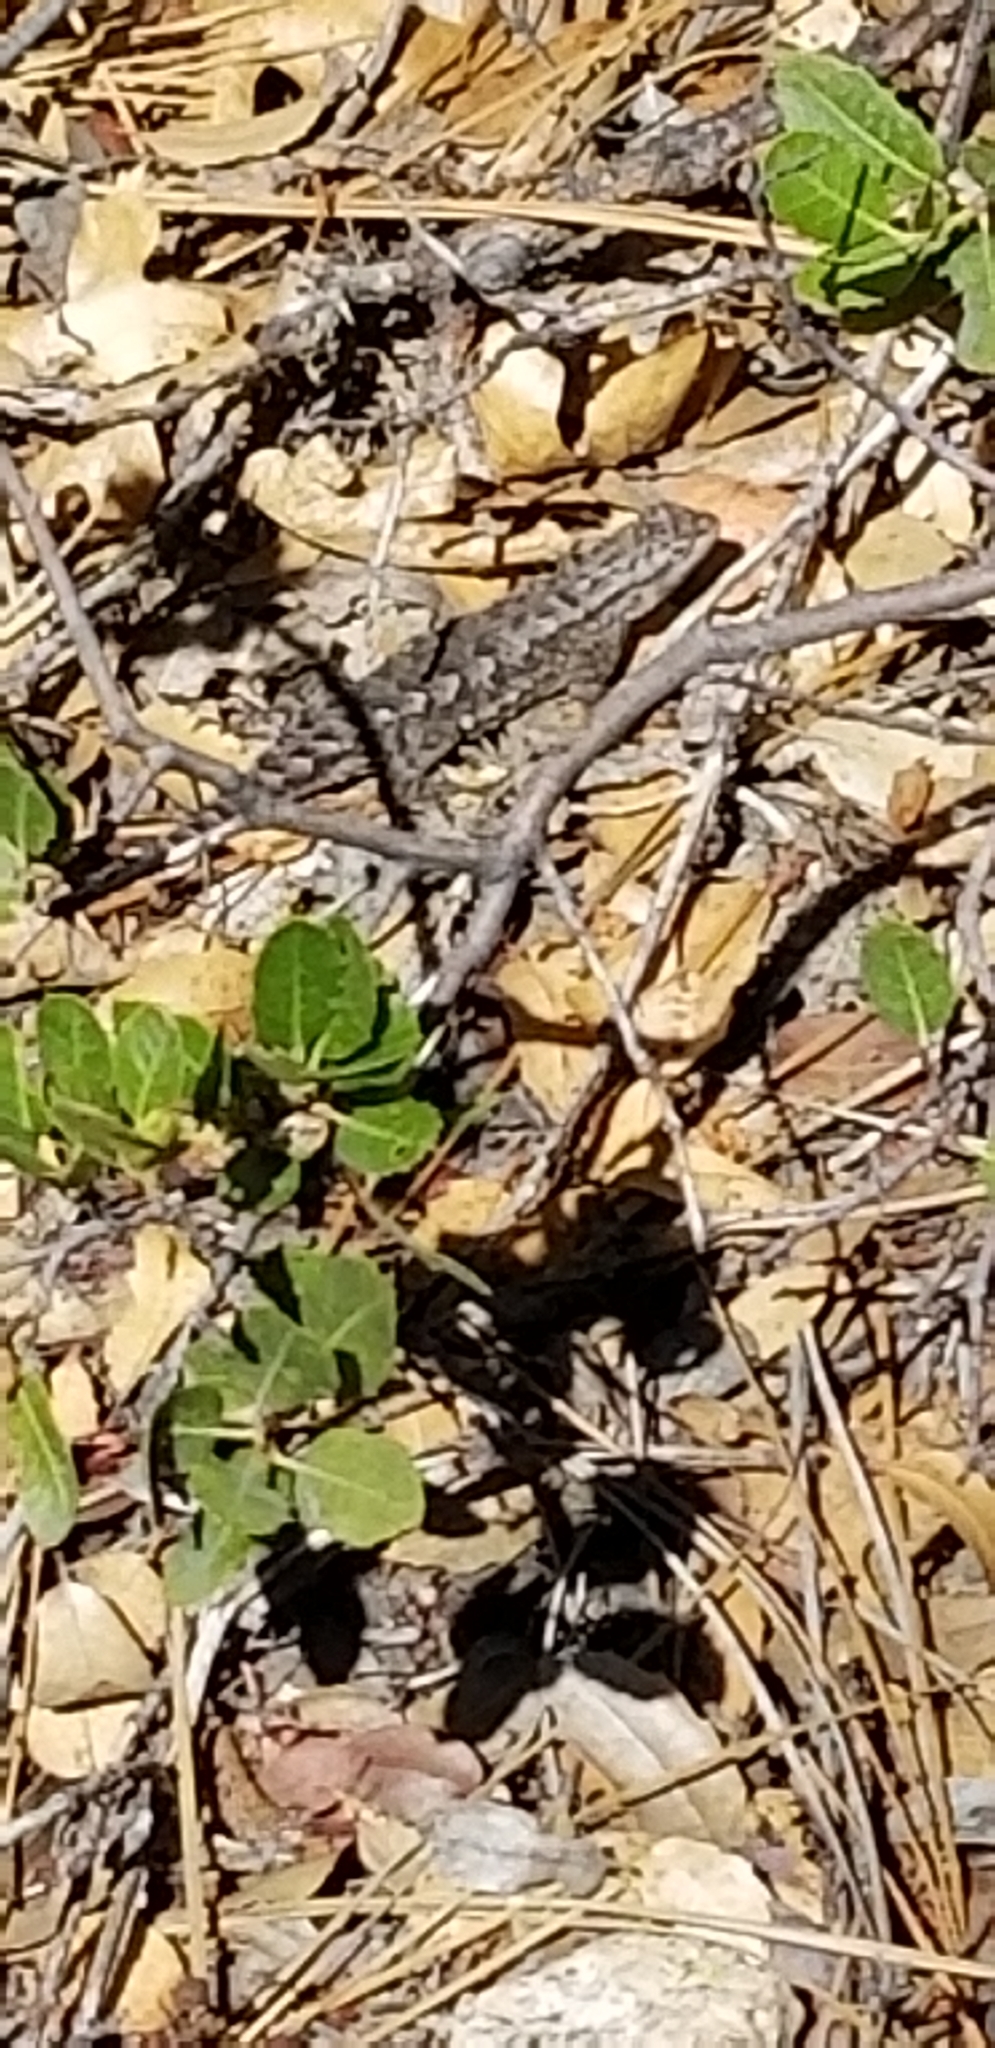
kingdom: Animalia
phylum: Chordata
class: Squamata
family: Phrynosomatidae
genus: Sceloporus
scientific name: Sceloporus occidentalis
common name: Western fence lizard
